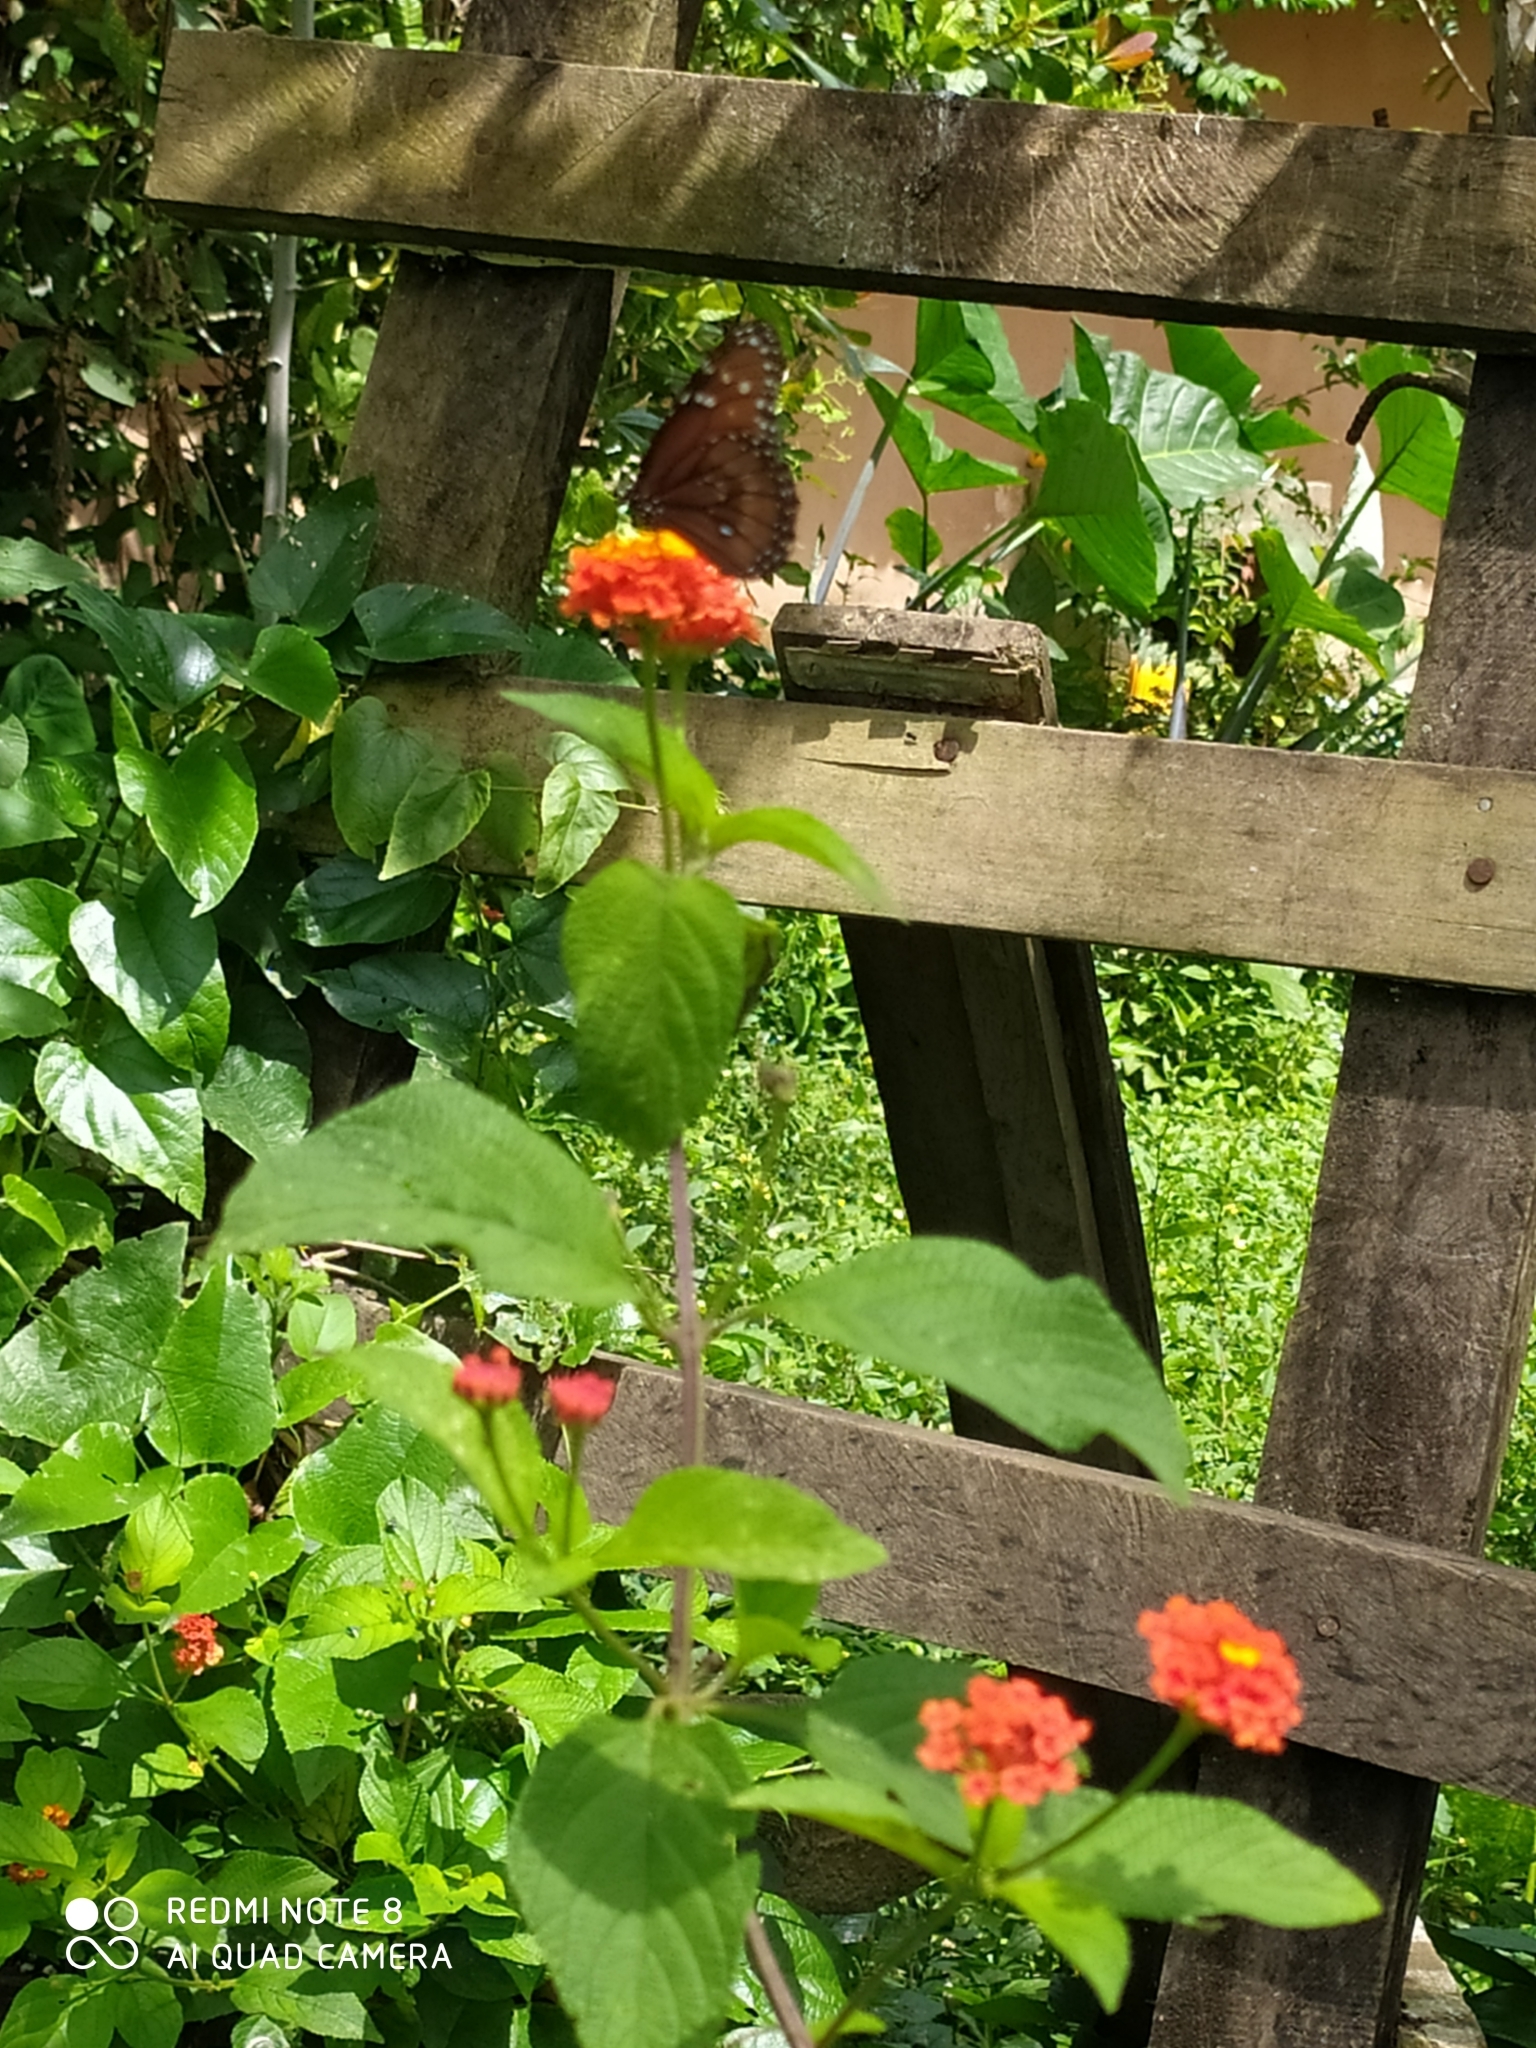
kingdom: Animalia
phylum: Arthropoda
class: Insecta
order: Lepidoptera
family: Nymphalidae
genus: Danaus
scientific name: Danaus eresimus
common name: Soldier
